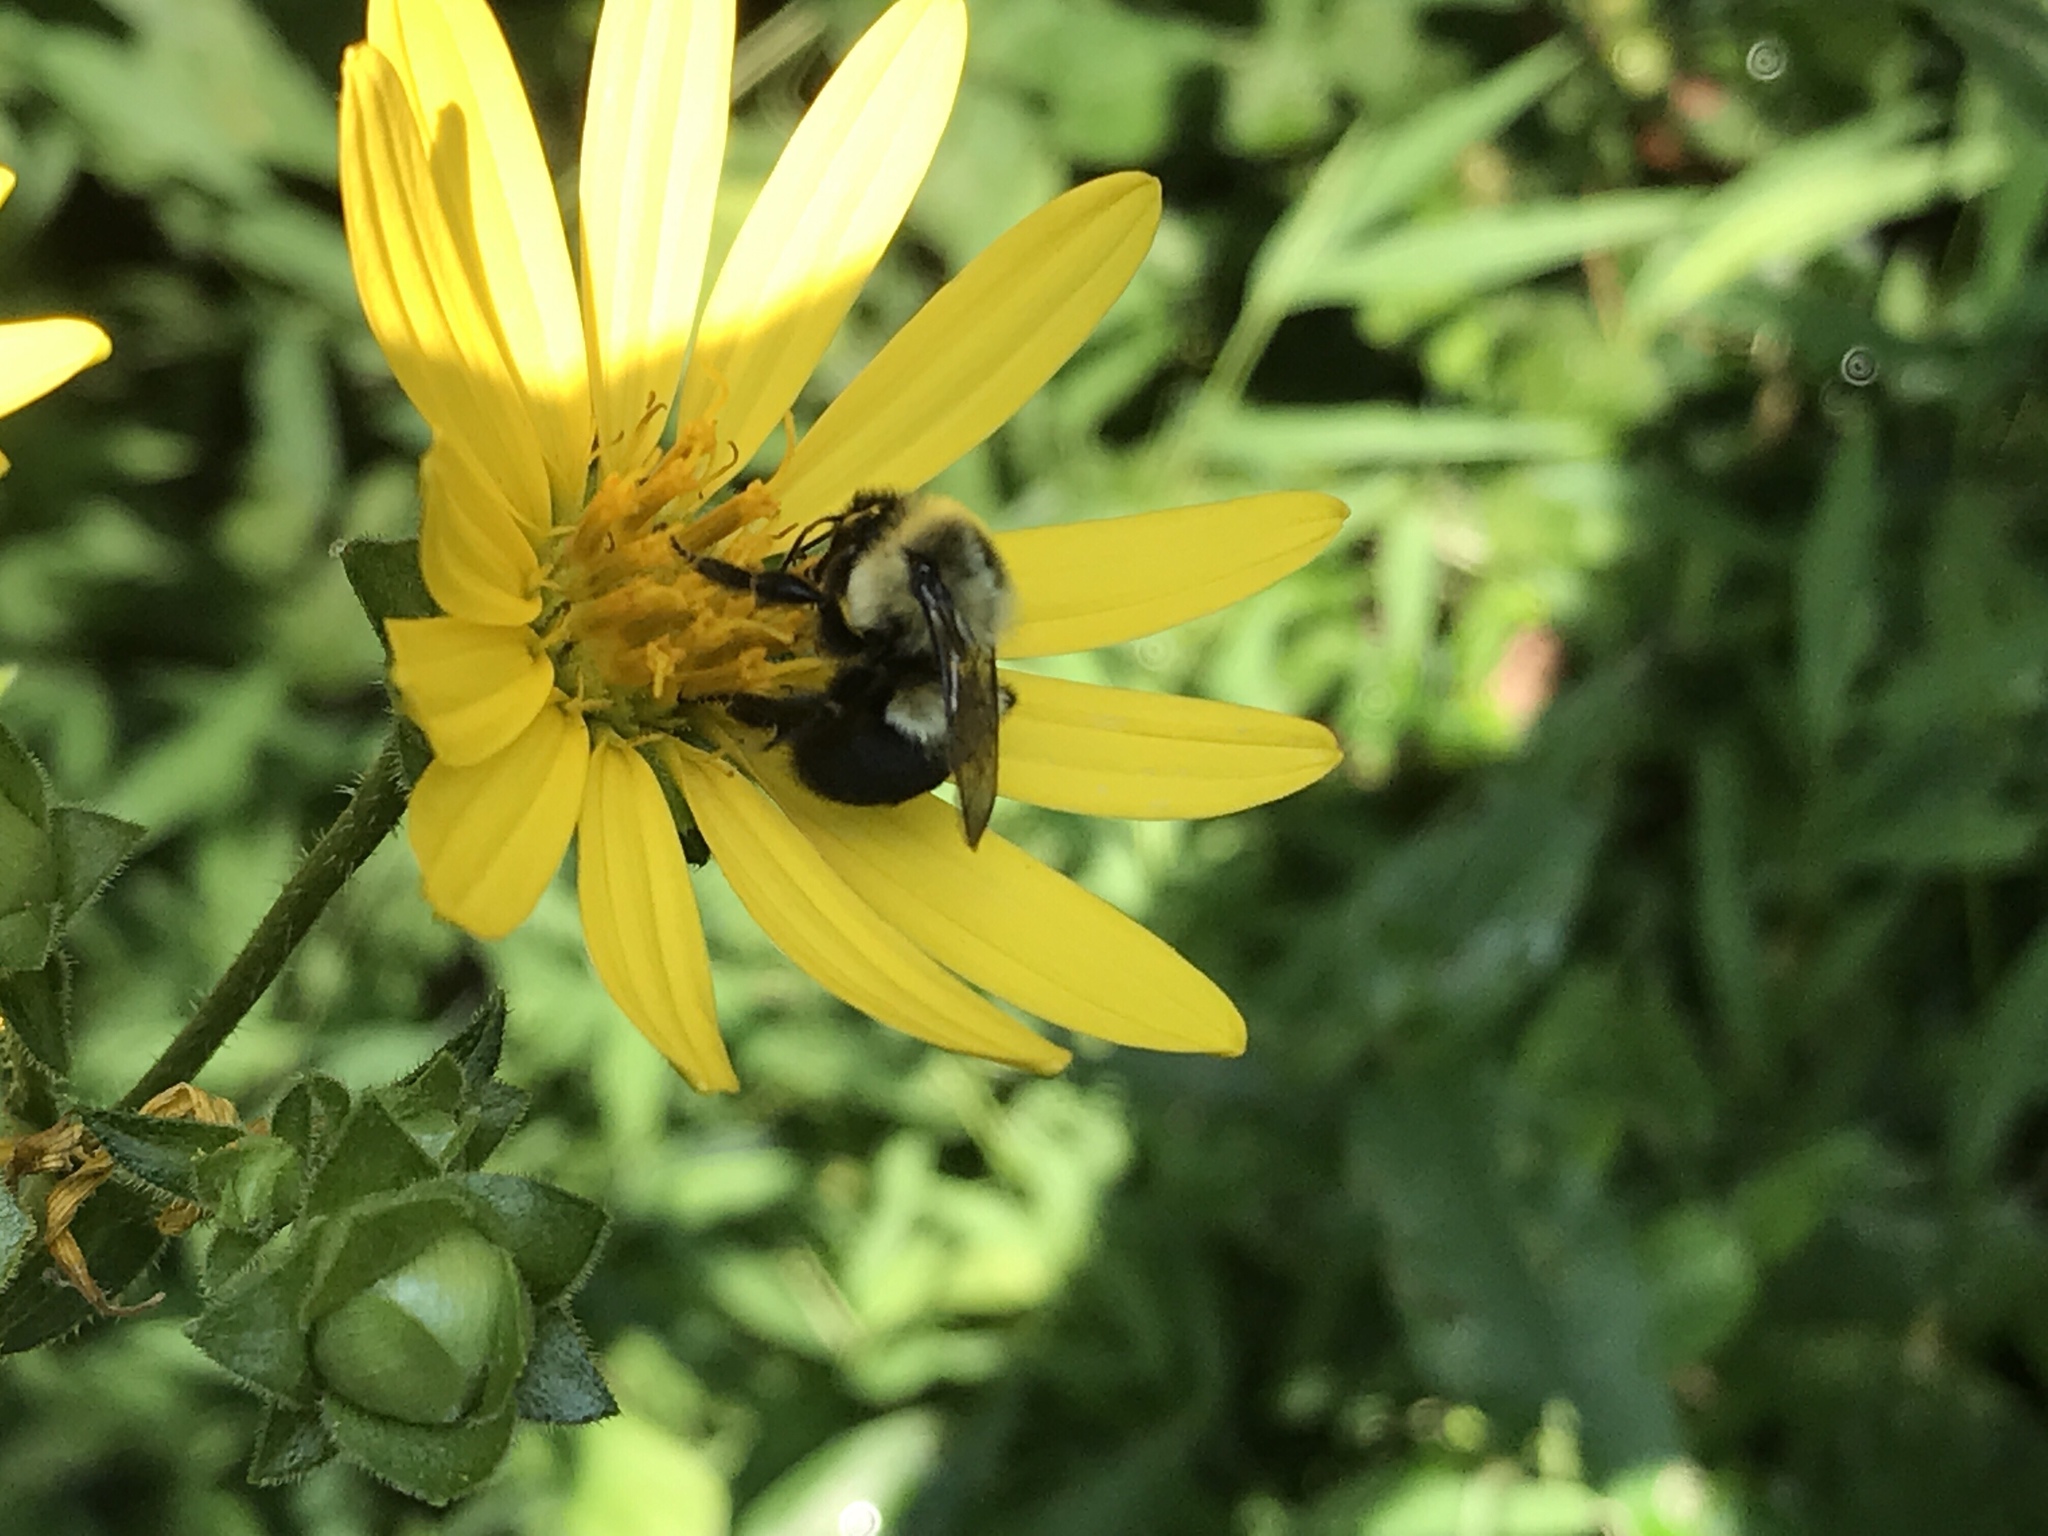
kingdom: Animalia
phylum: Arthropoda
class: Insecta
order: Hymenoptera
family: Apidae
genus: Bombus
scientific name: Bombus impatiens
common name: Common eastern bumble bee
